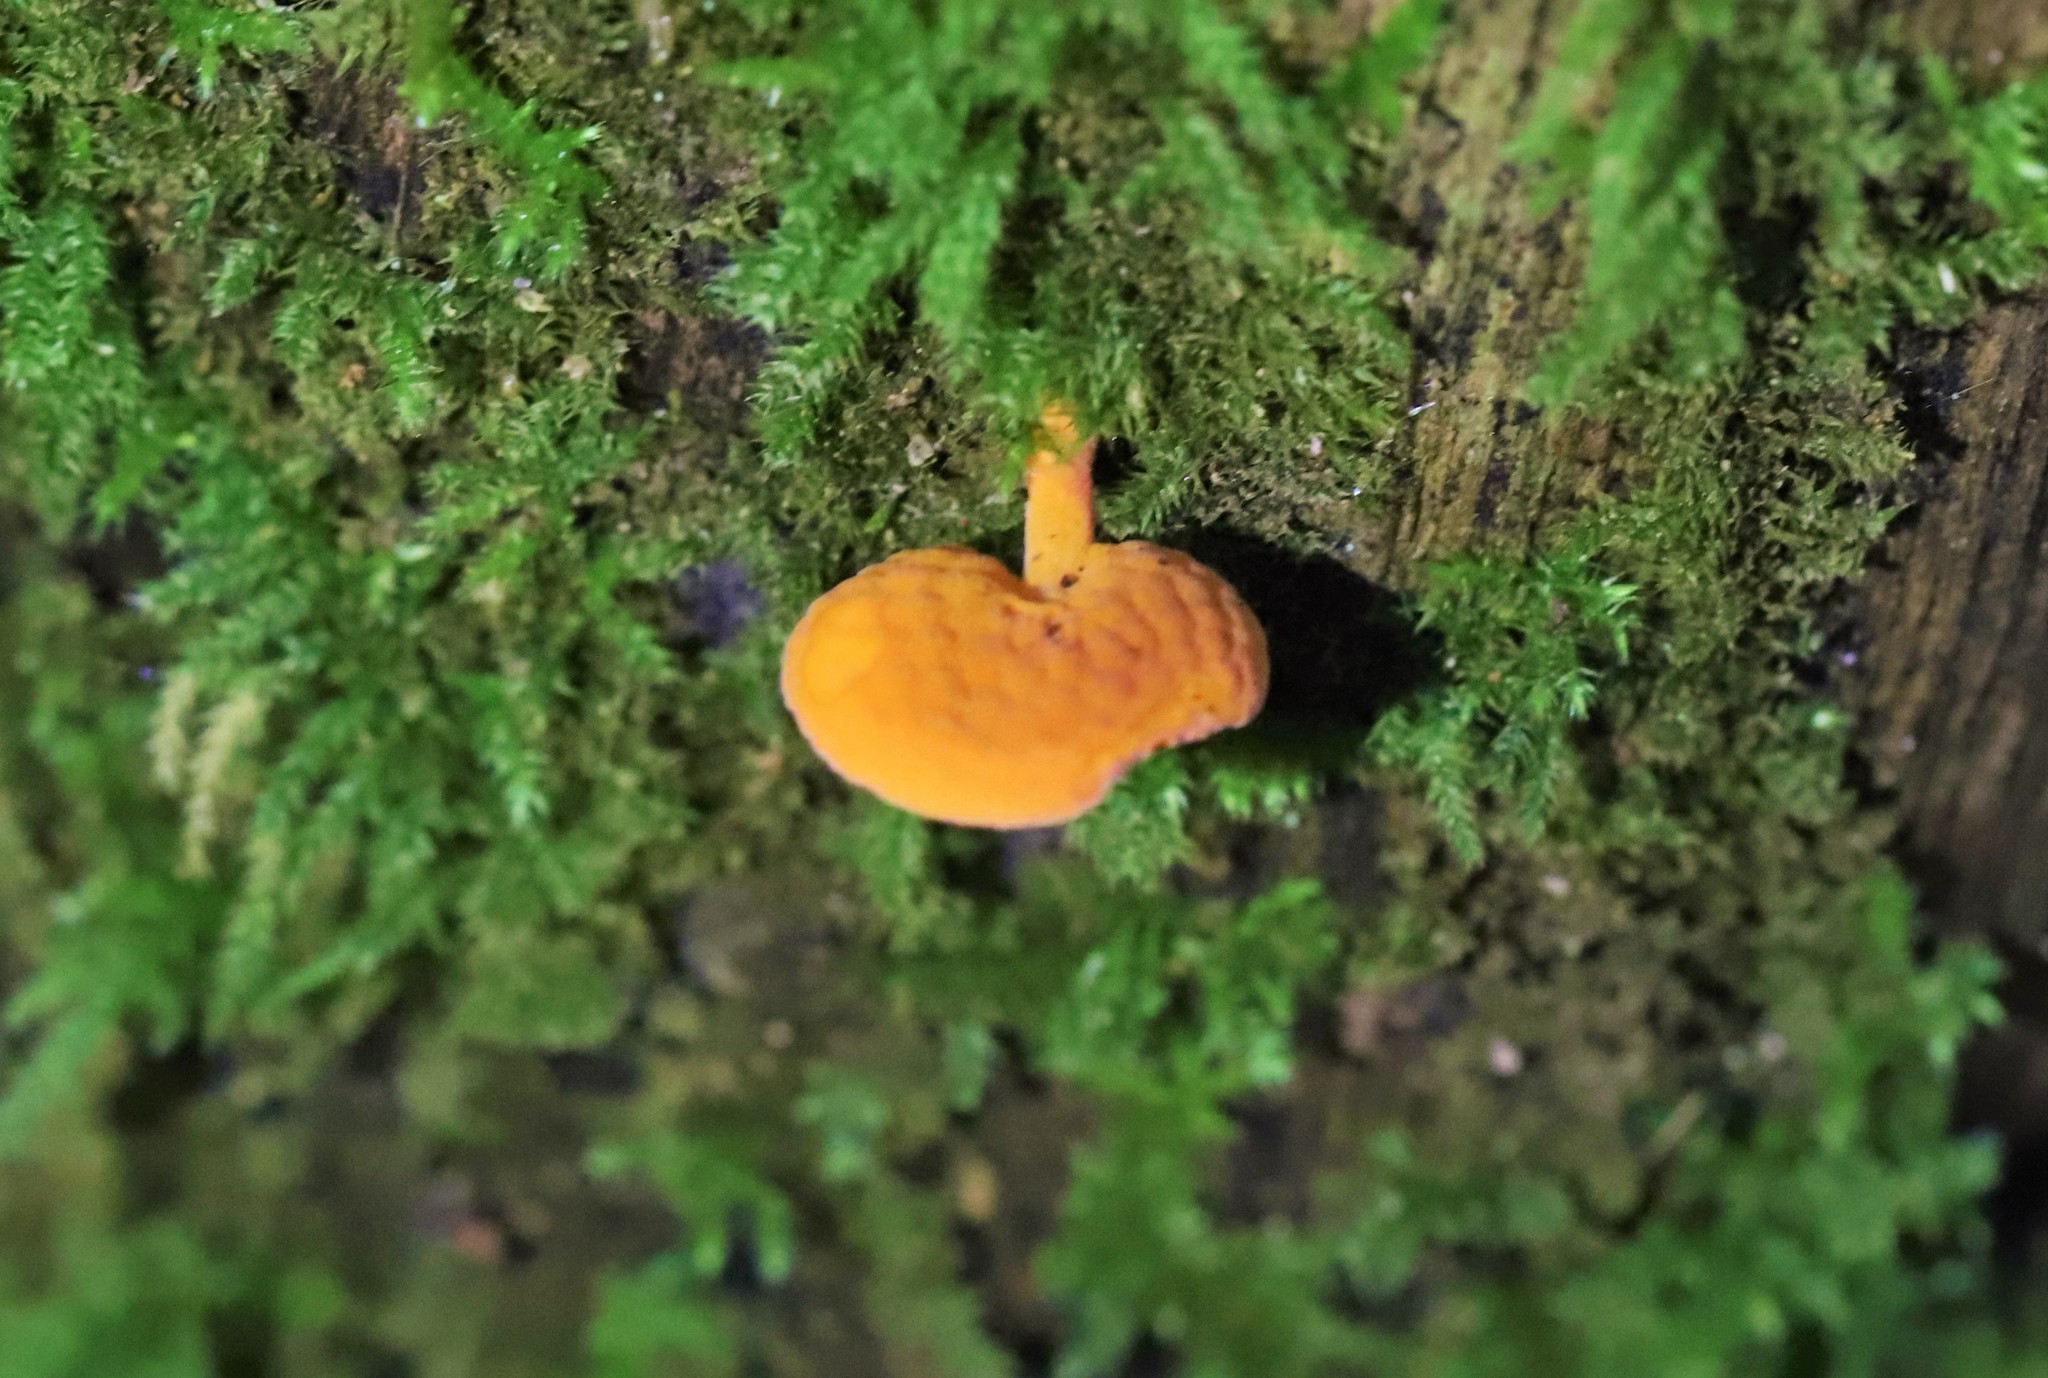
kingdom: Fungi
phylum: Basidiomycota
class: Agaricomycetes
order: Agaricales
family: Mycenaceae
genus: Favolaschia
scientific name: Favolaschia claudopus
